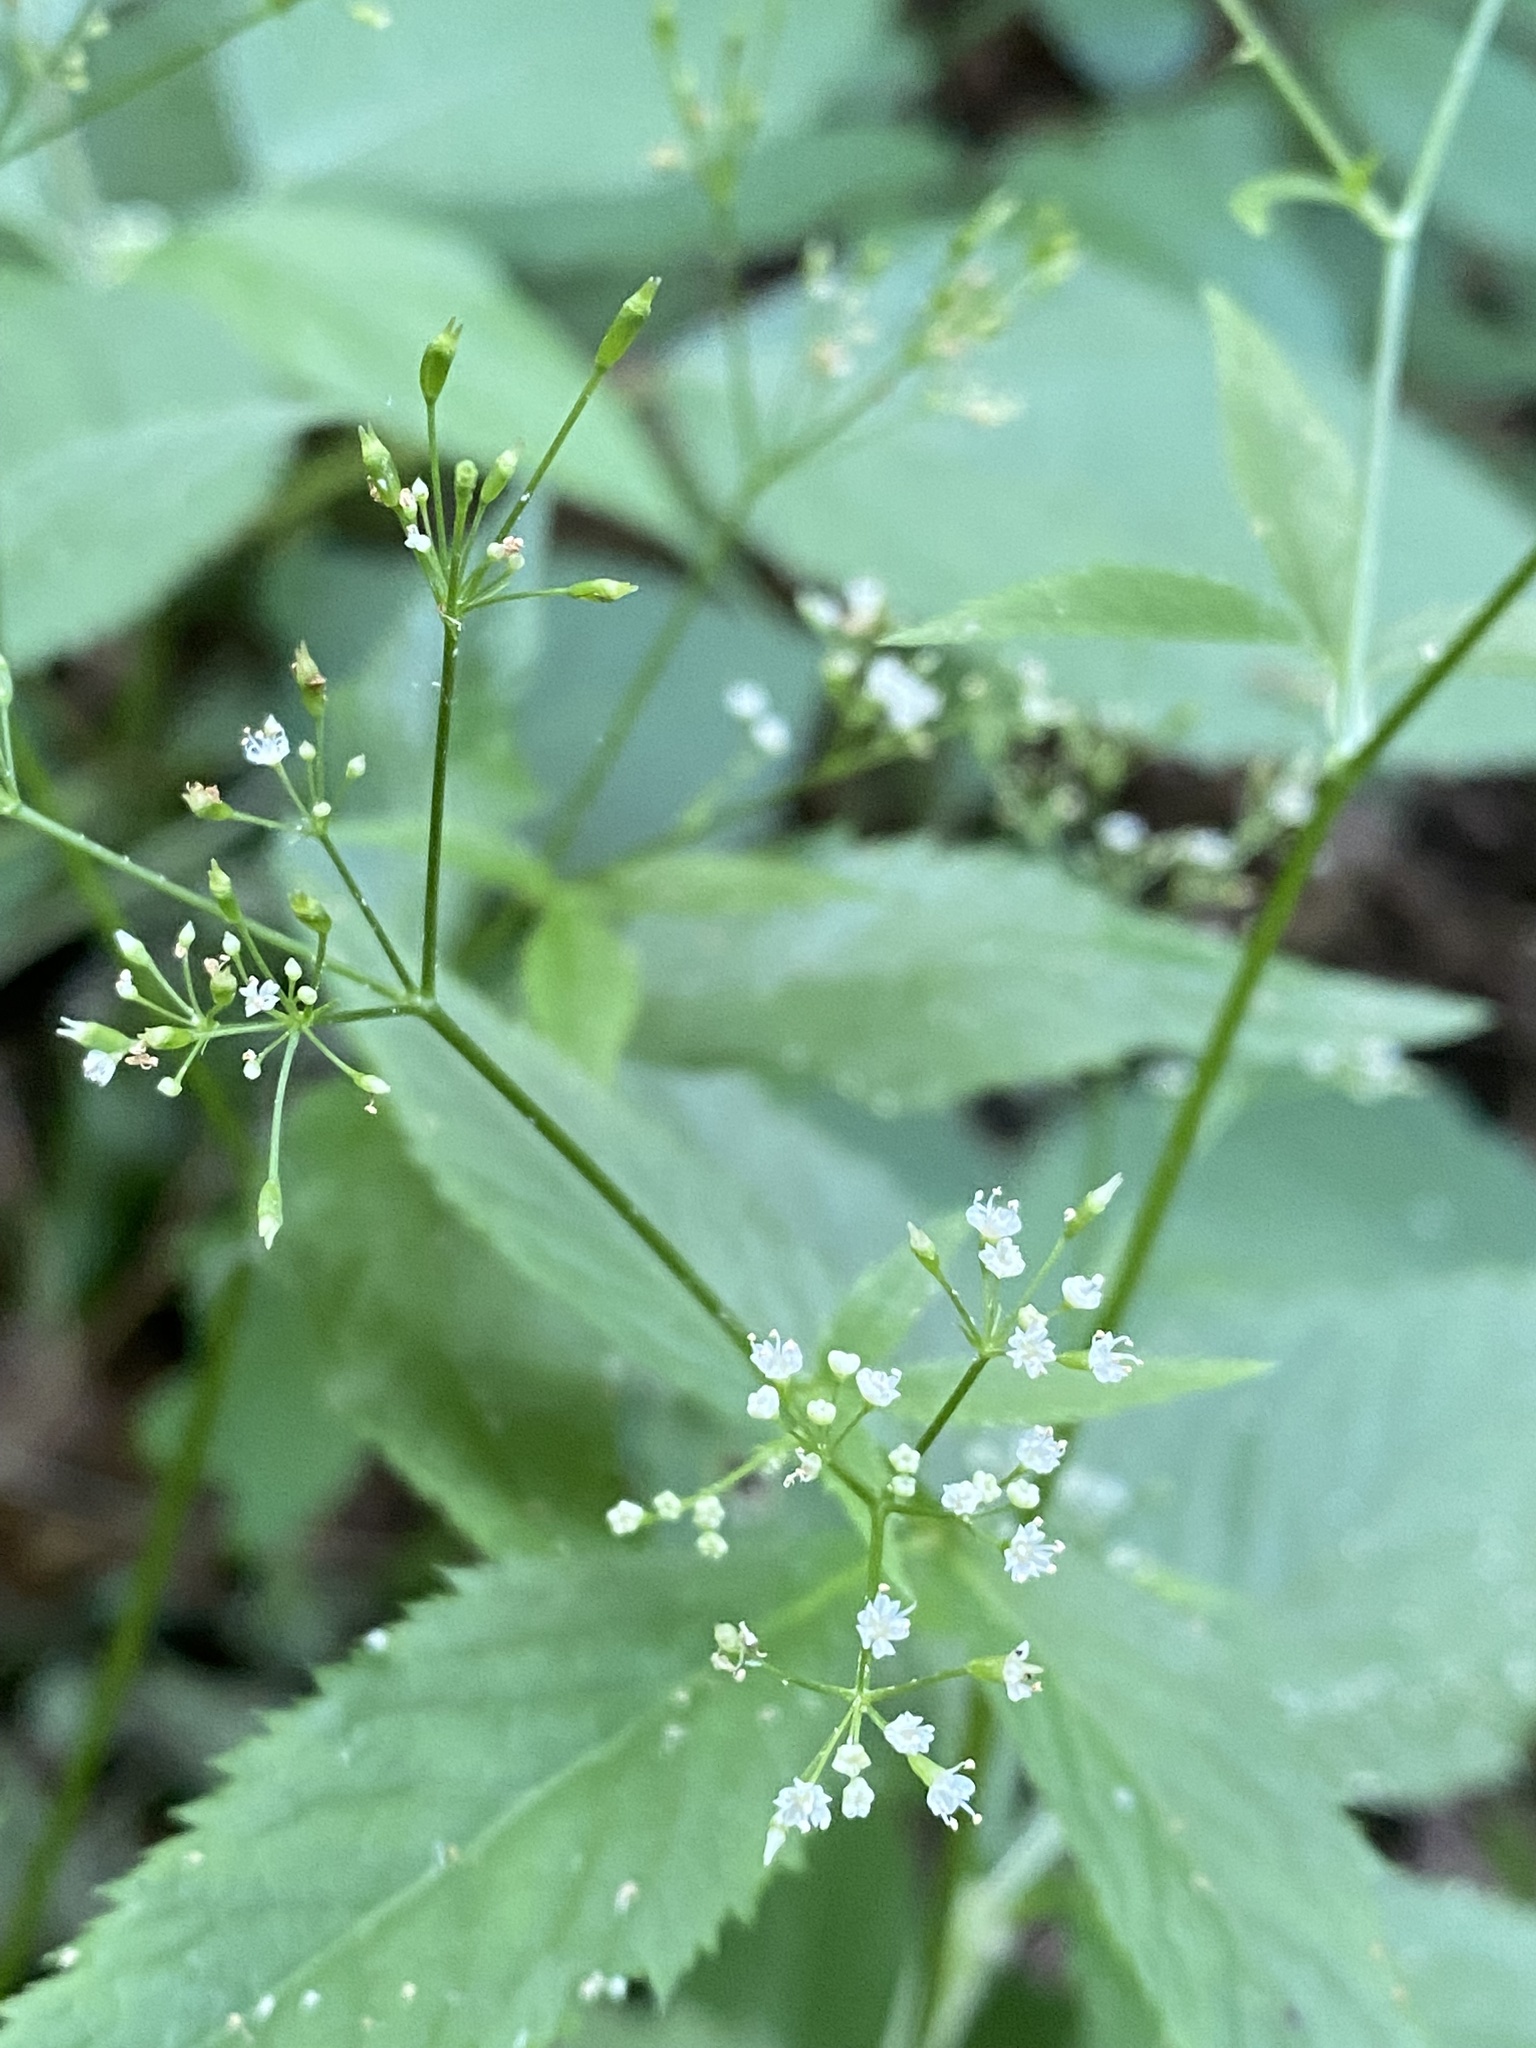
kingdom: Plantae
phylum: Tracheophyta
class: Magnoliopsida
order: Apiales
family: Apiaceae
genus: Cryptotaenia
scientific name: Cryptotaenia canadensis
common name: Honewort
